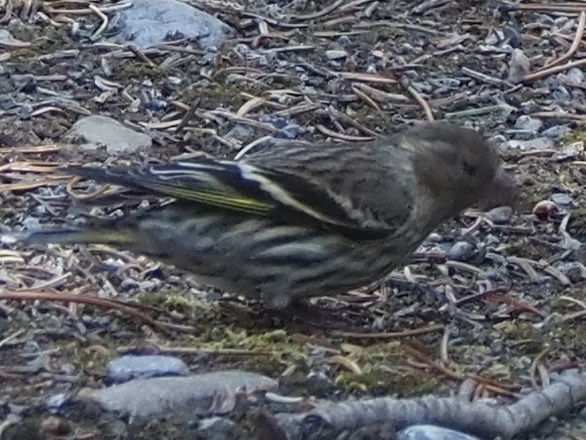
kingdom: Animalia
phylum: Chordata
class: Aves
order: Passeriformes
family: Fringillidae
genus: Spinus
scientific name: Spinus pinus
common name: Pine siskin
